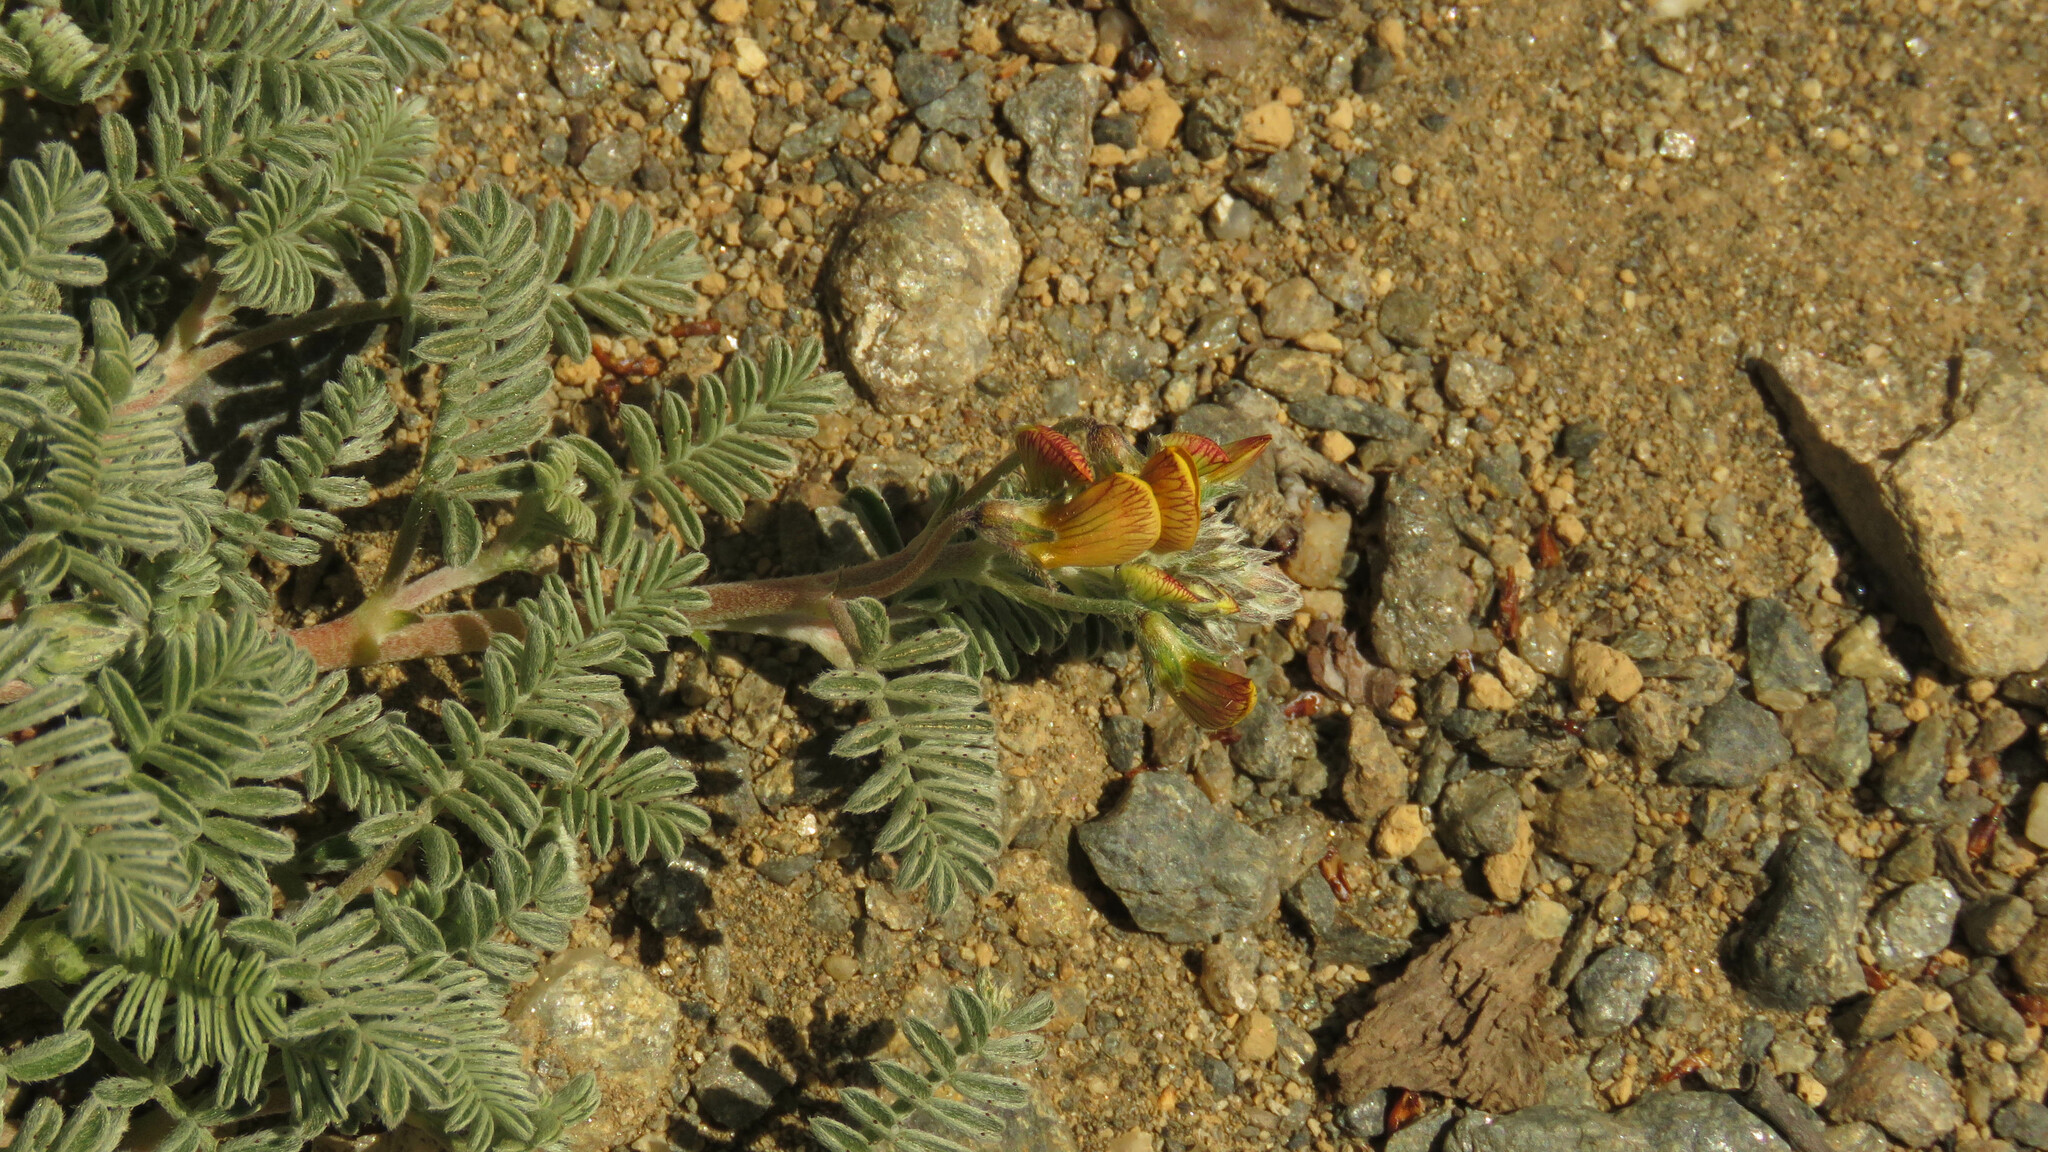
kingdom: Plantae
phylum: Tracheophyta
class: Magnoliopsida
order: Fabales
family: Fabaceae
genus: Adesmia
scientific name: Adesmia corymbosa
